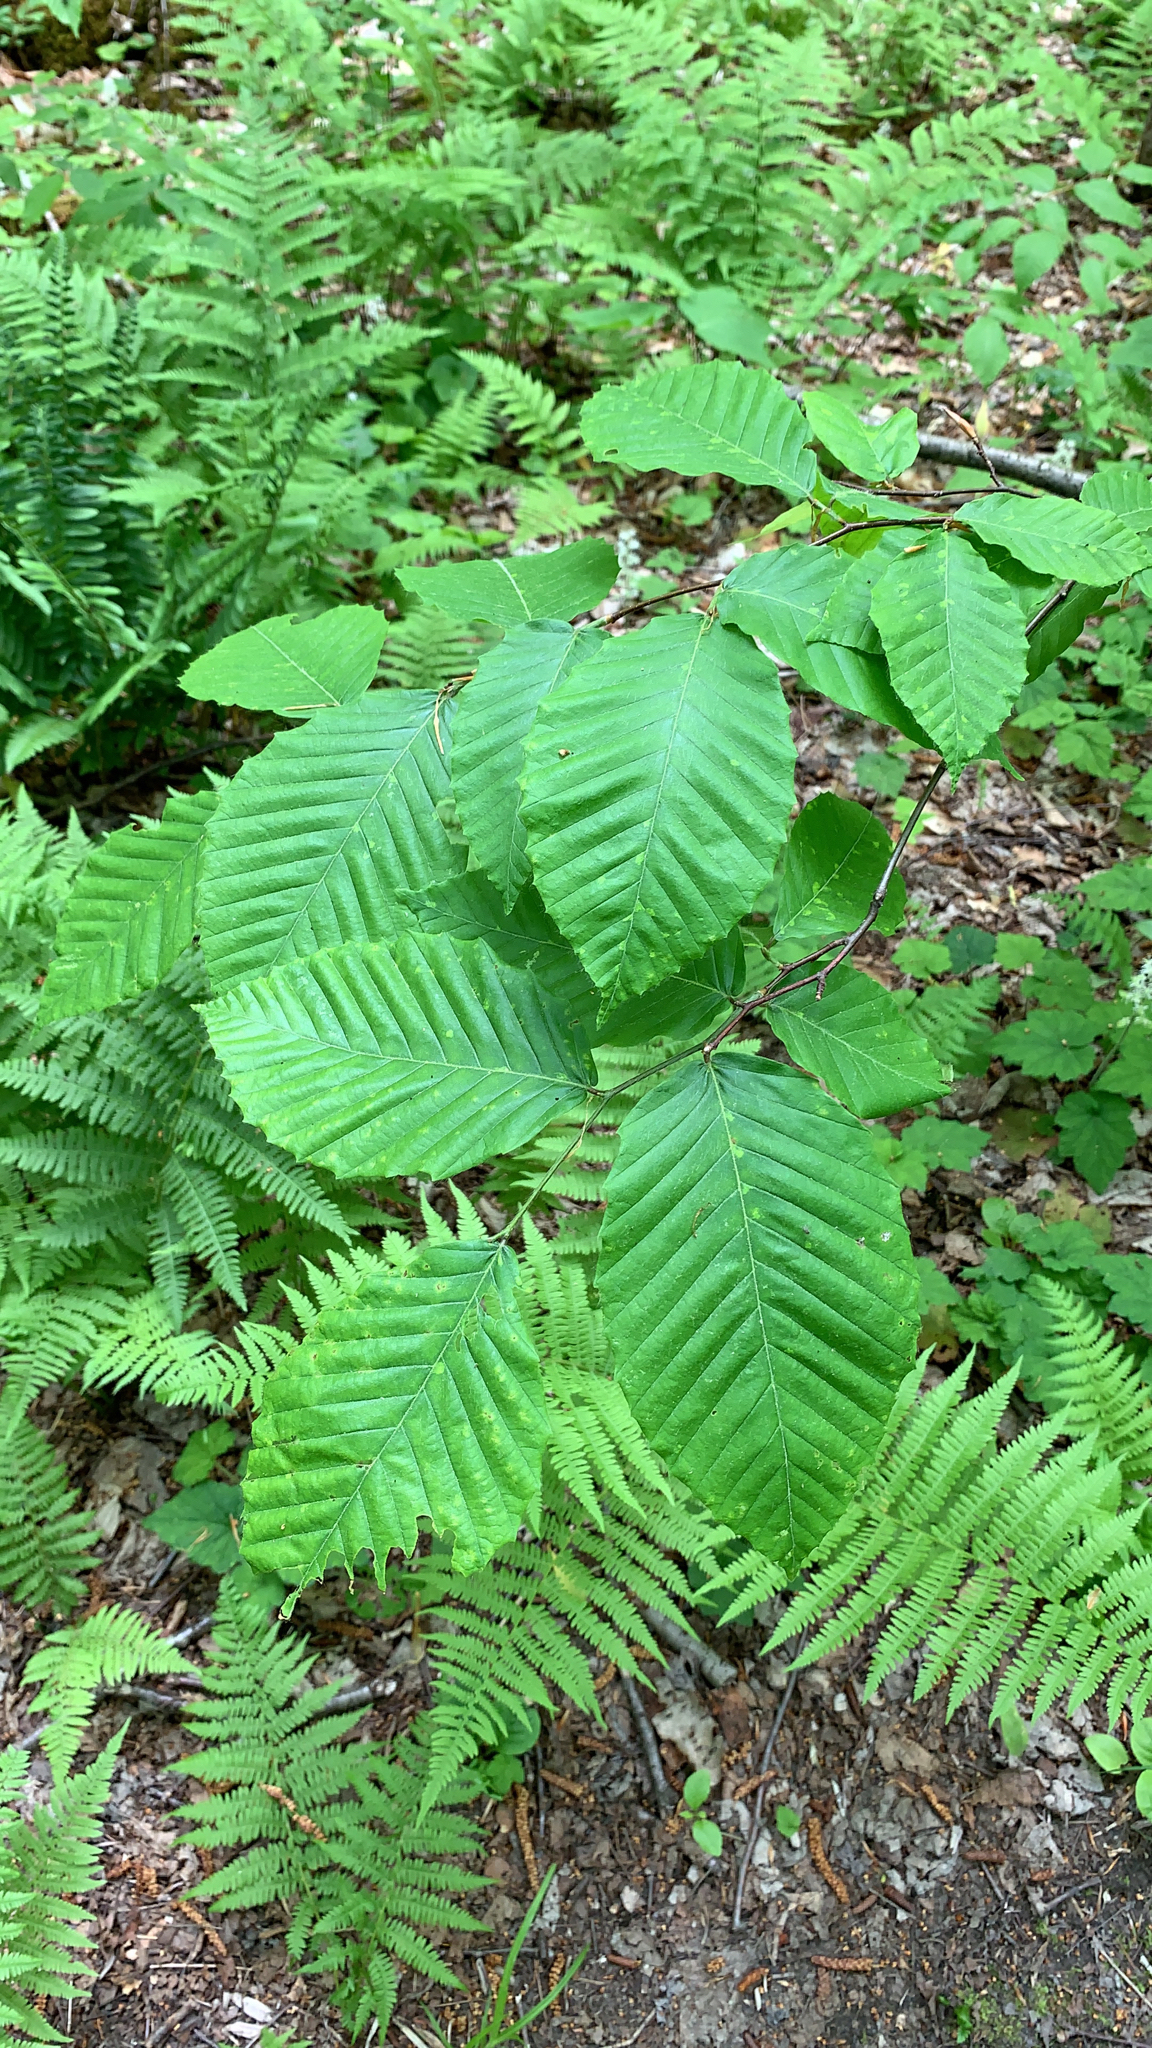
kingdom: Plantae
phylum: Tracheophyta
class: Magnoliopsida
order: Fagales
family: Fagaceae
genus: Fagus
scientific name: Fagus grandifolia
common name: American beech
